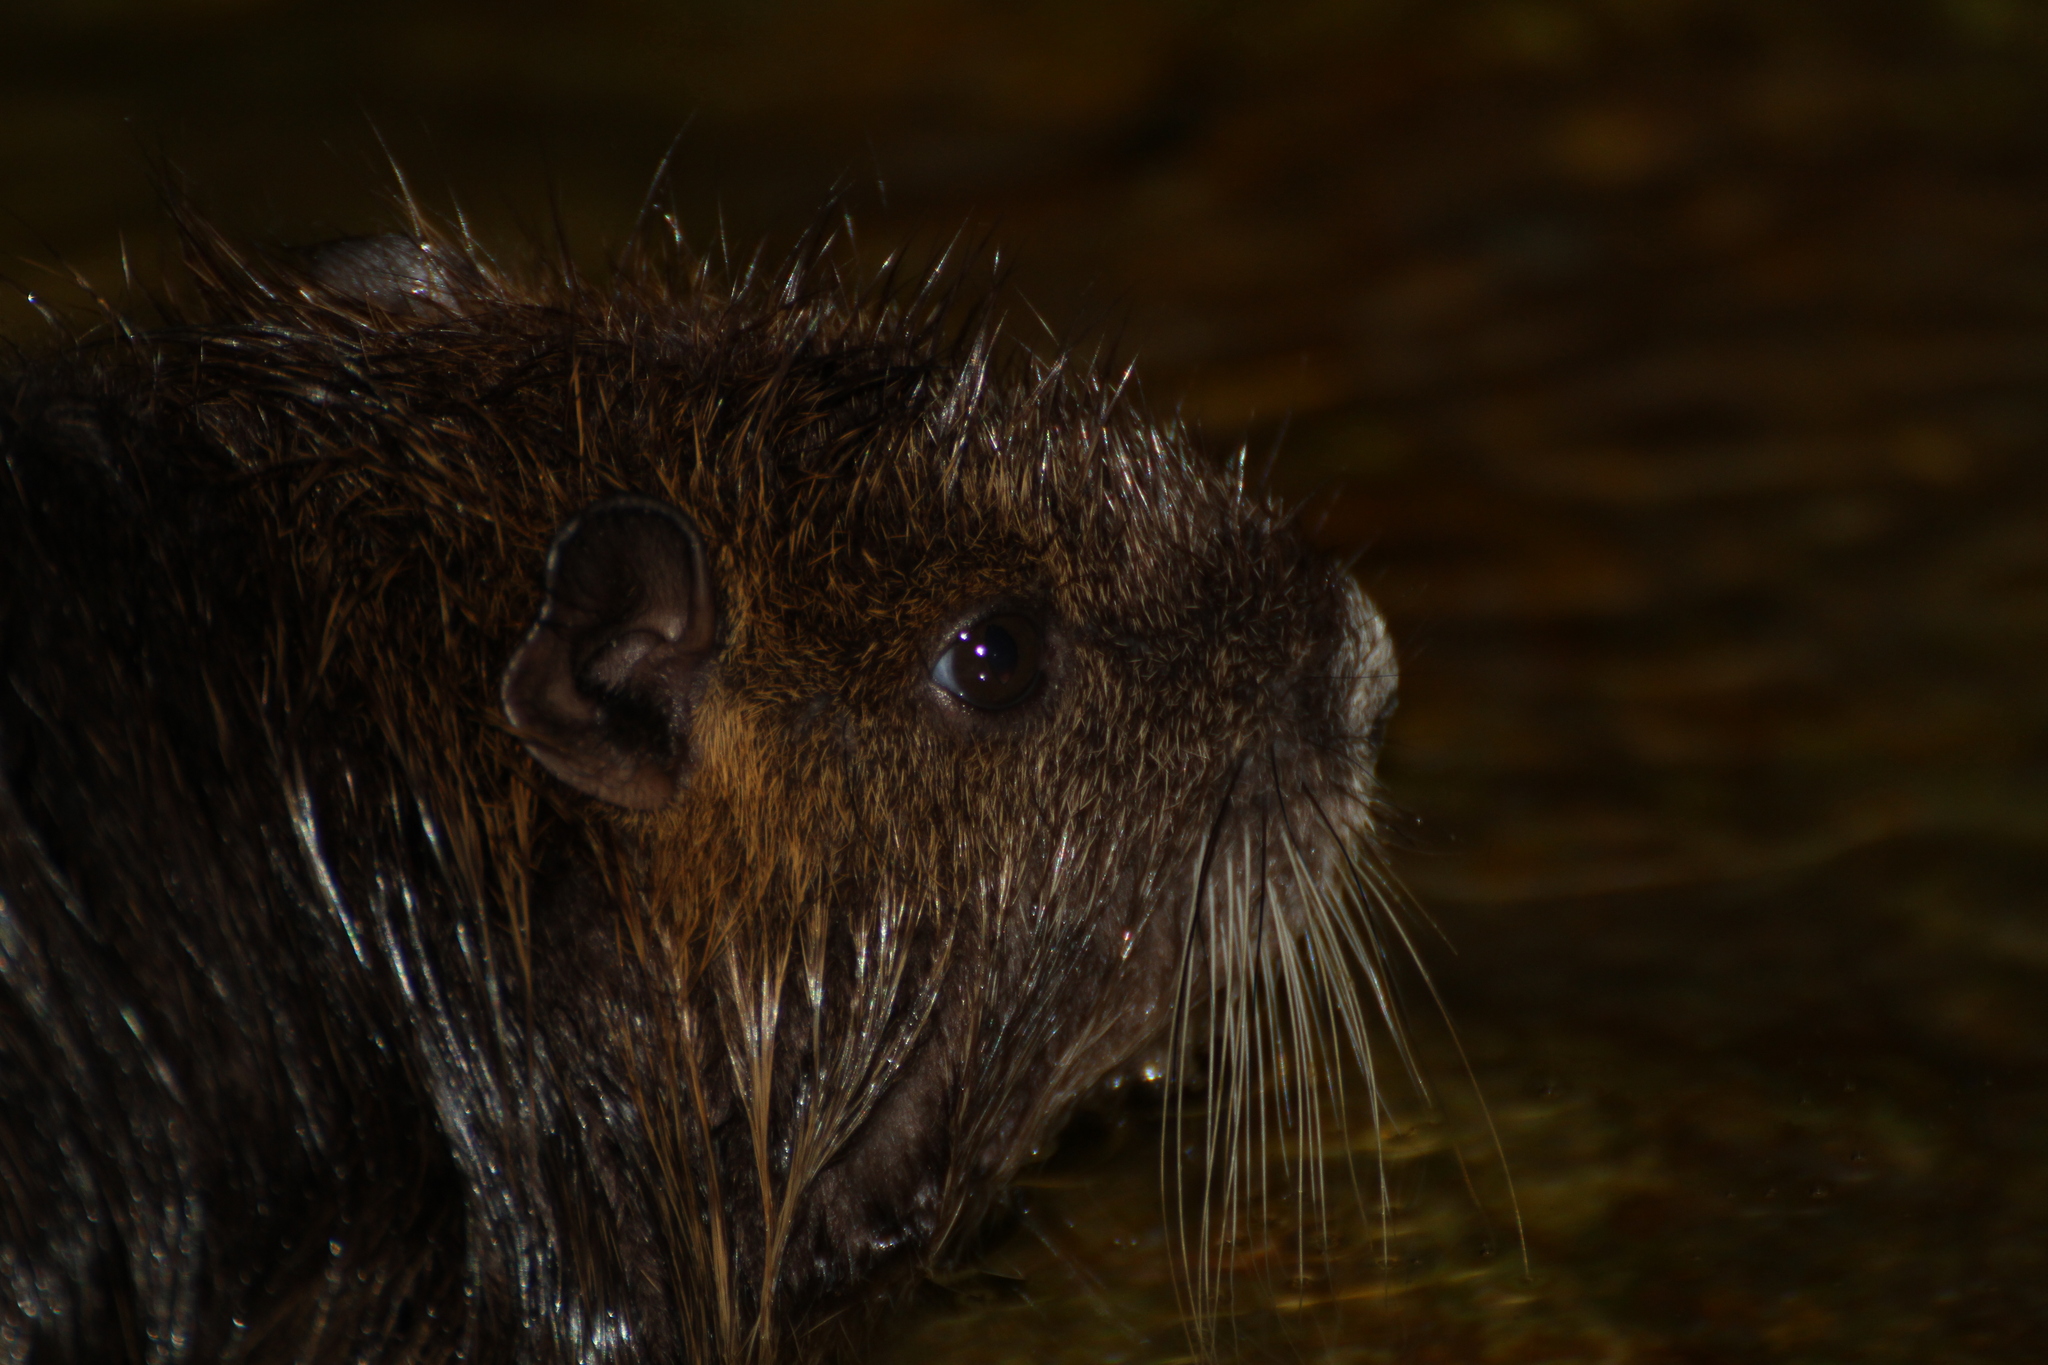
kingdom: Animalia
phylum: Chordata
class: Mammalia
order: Rodentia
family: Myocastoridae
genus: Myocastor
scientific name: Myocastor coypus
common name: Coypu
